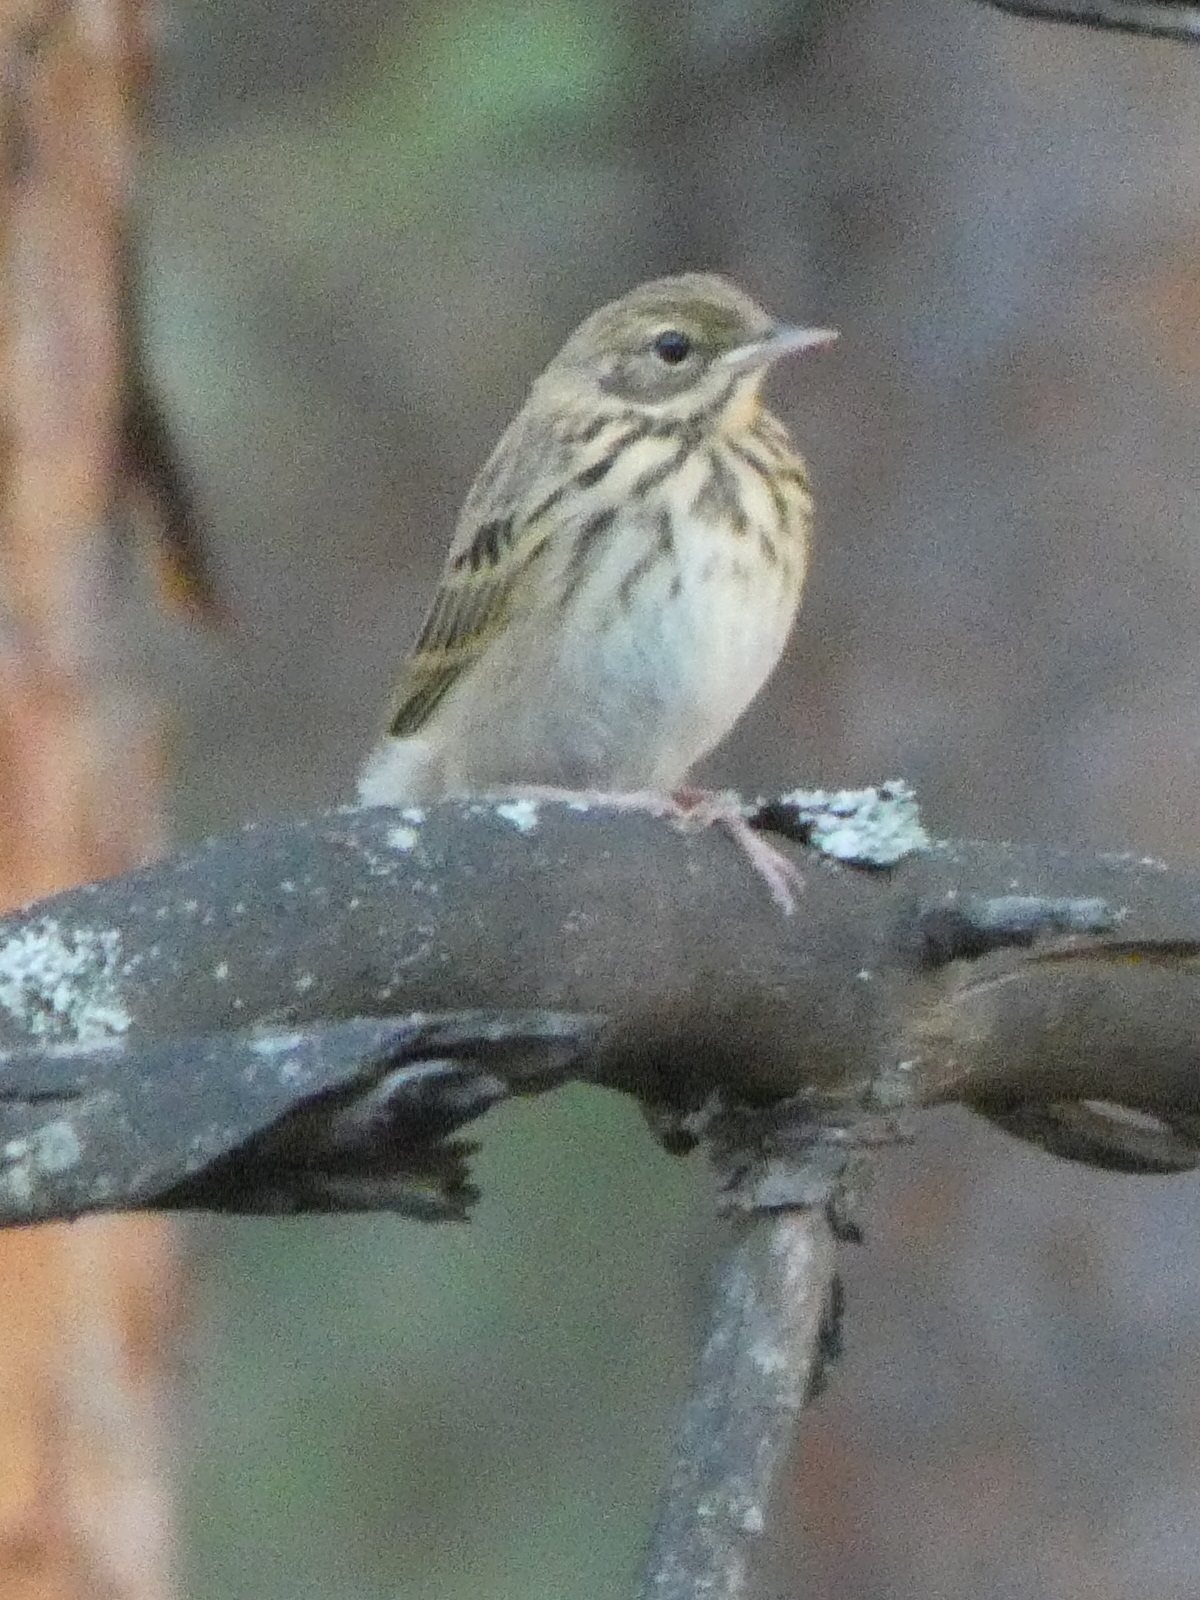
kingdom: Animalia
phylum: Chordata
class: Aves
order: Passeriformes
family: Motacillidae
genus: Anthus
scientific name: Anthus trivialis
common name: Tree pipit
